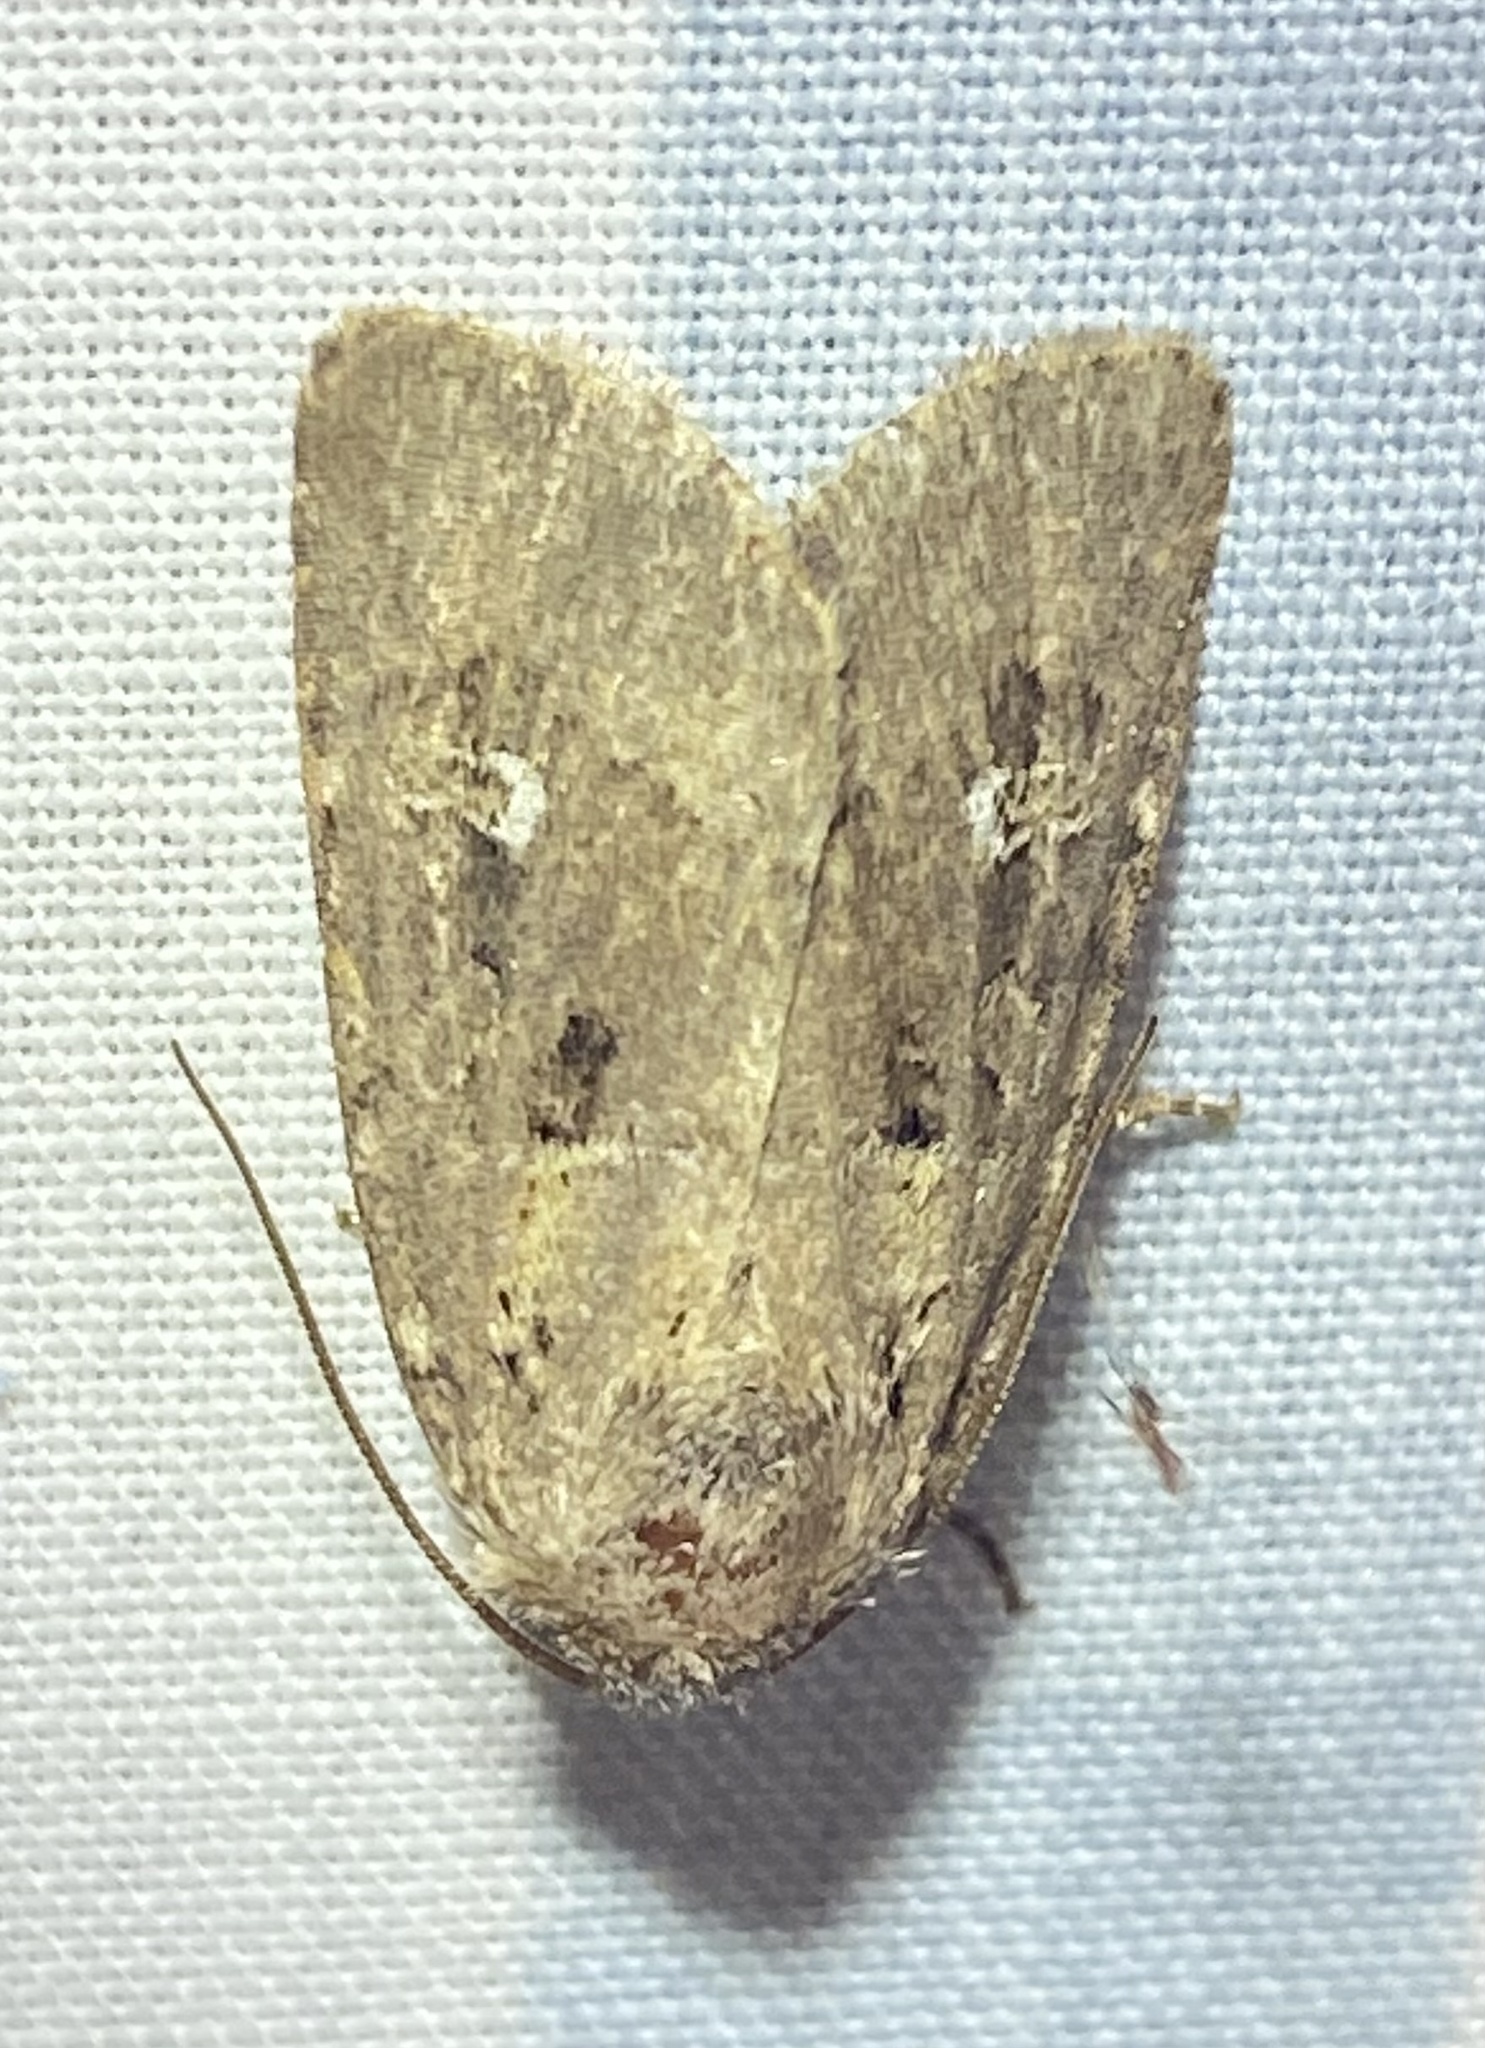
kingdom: Animalia
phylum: Arthropoda
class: Insecta
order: Lepidoptera
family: Noctuidae
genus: Lacinipolia
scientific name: Lacinipolia renigera
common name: Kidney-spotted minor
